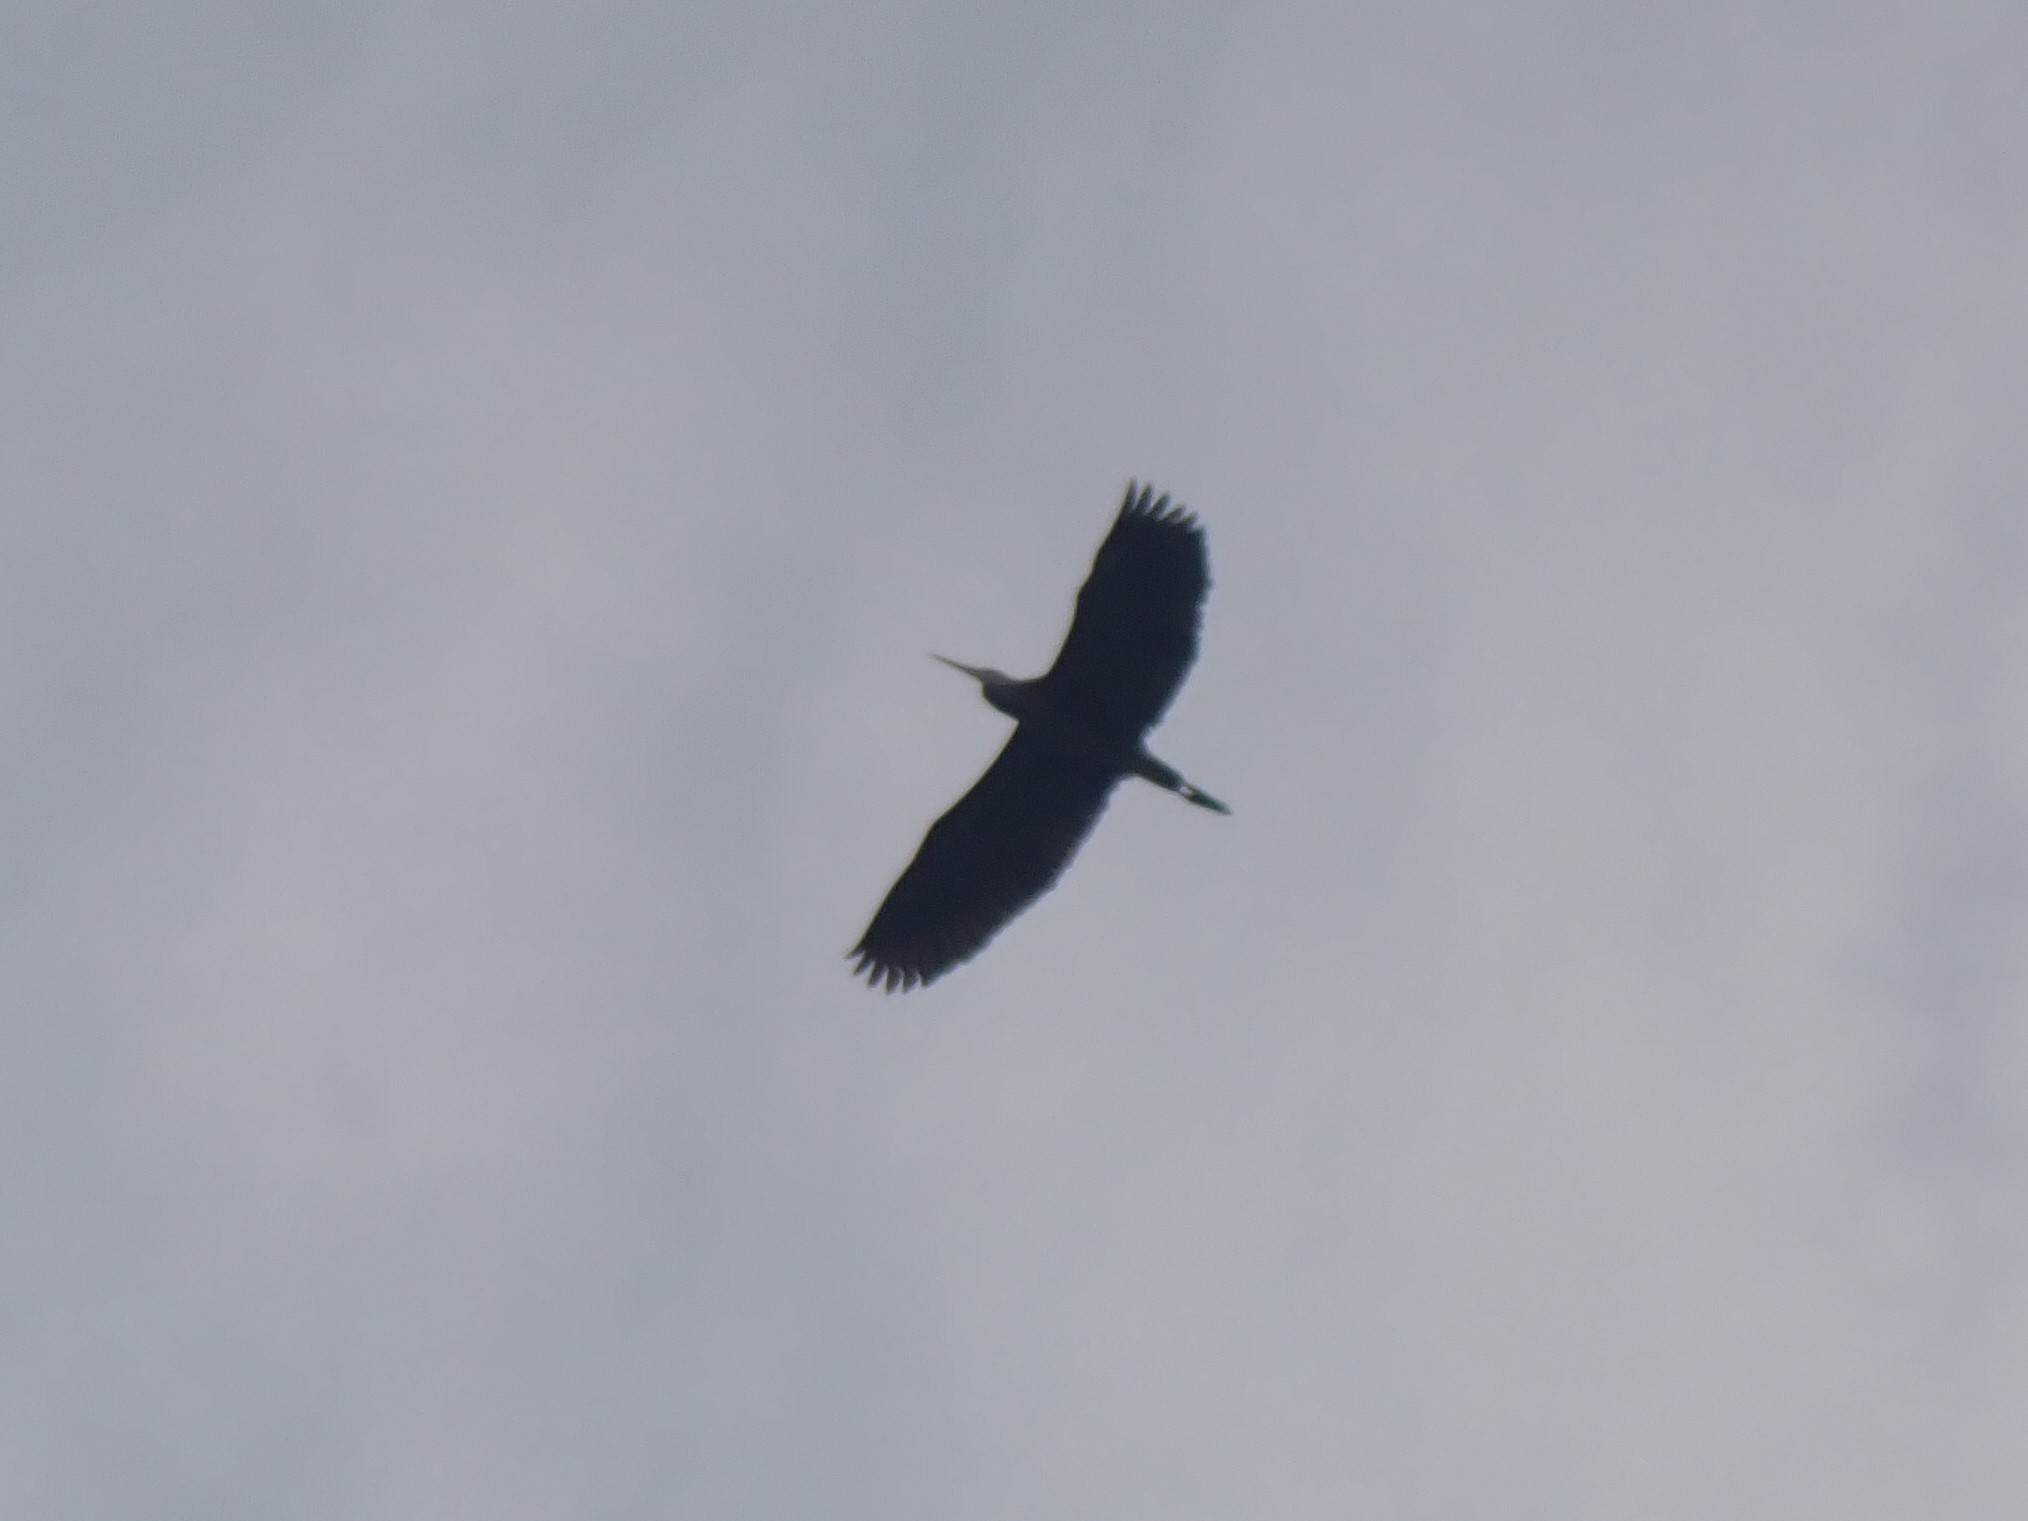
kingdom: Animalia
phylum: Chordata
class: Aves
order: Pelecaniformes
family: Ardeidae
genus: Ardea
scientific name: Ardea herodias
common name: Great blue heron
